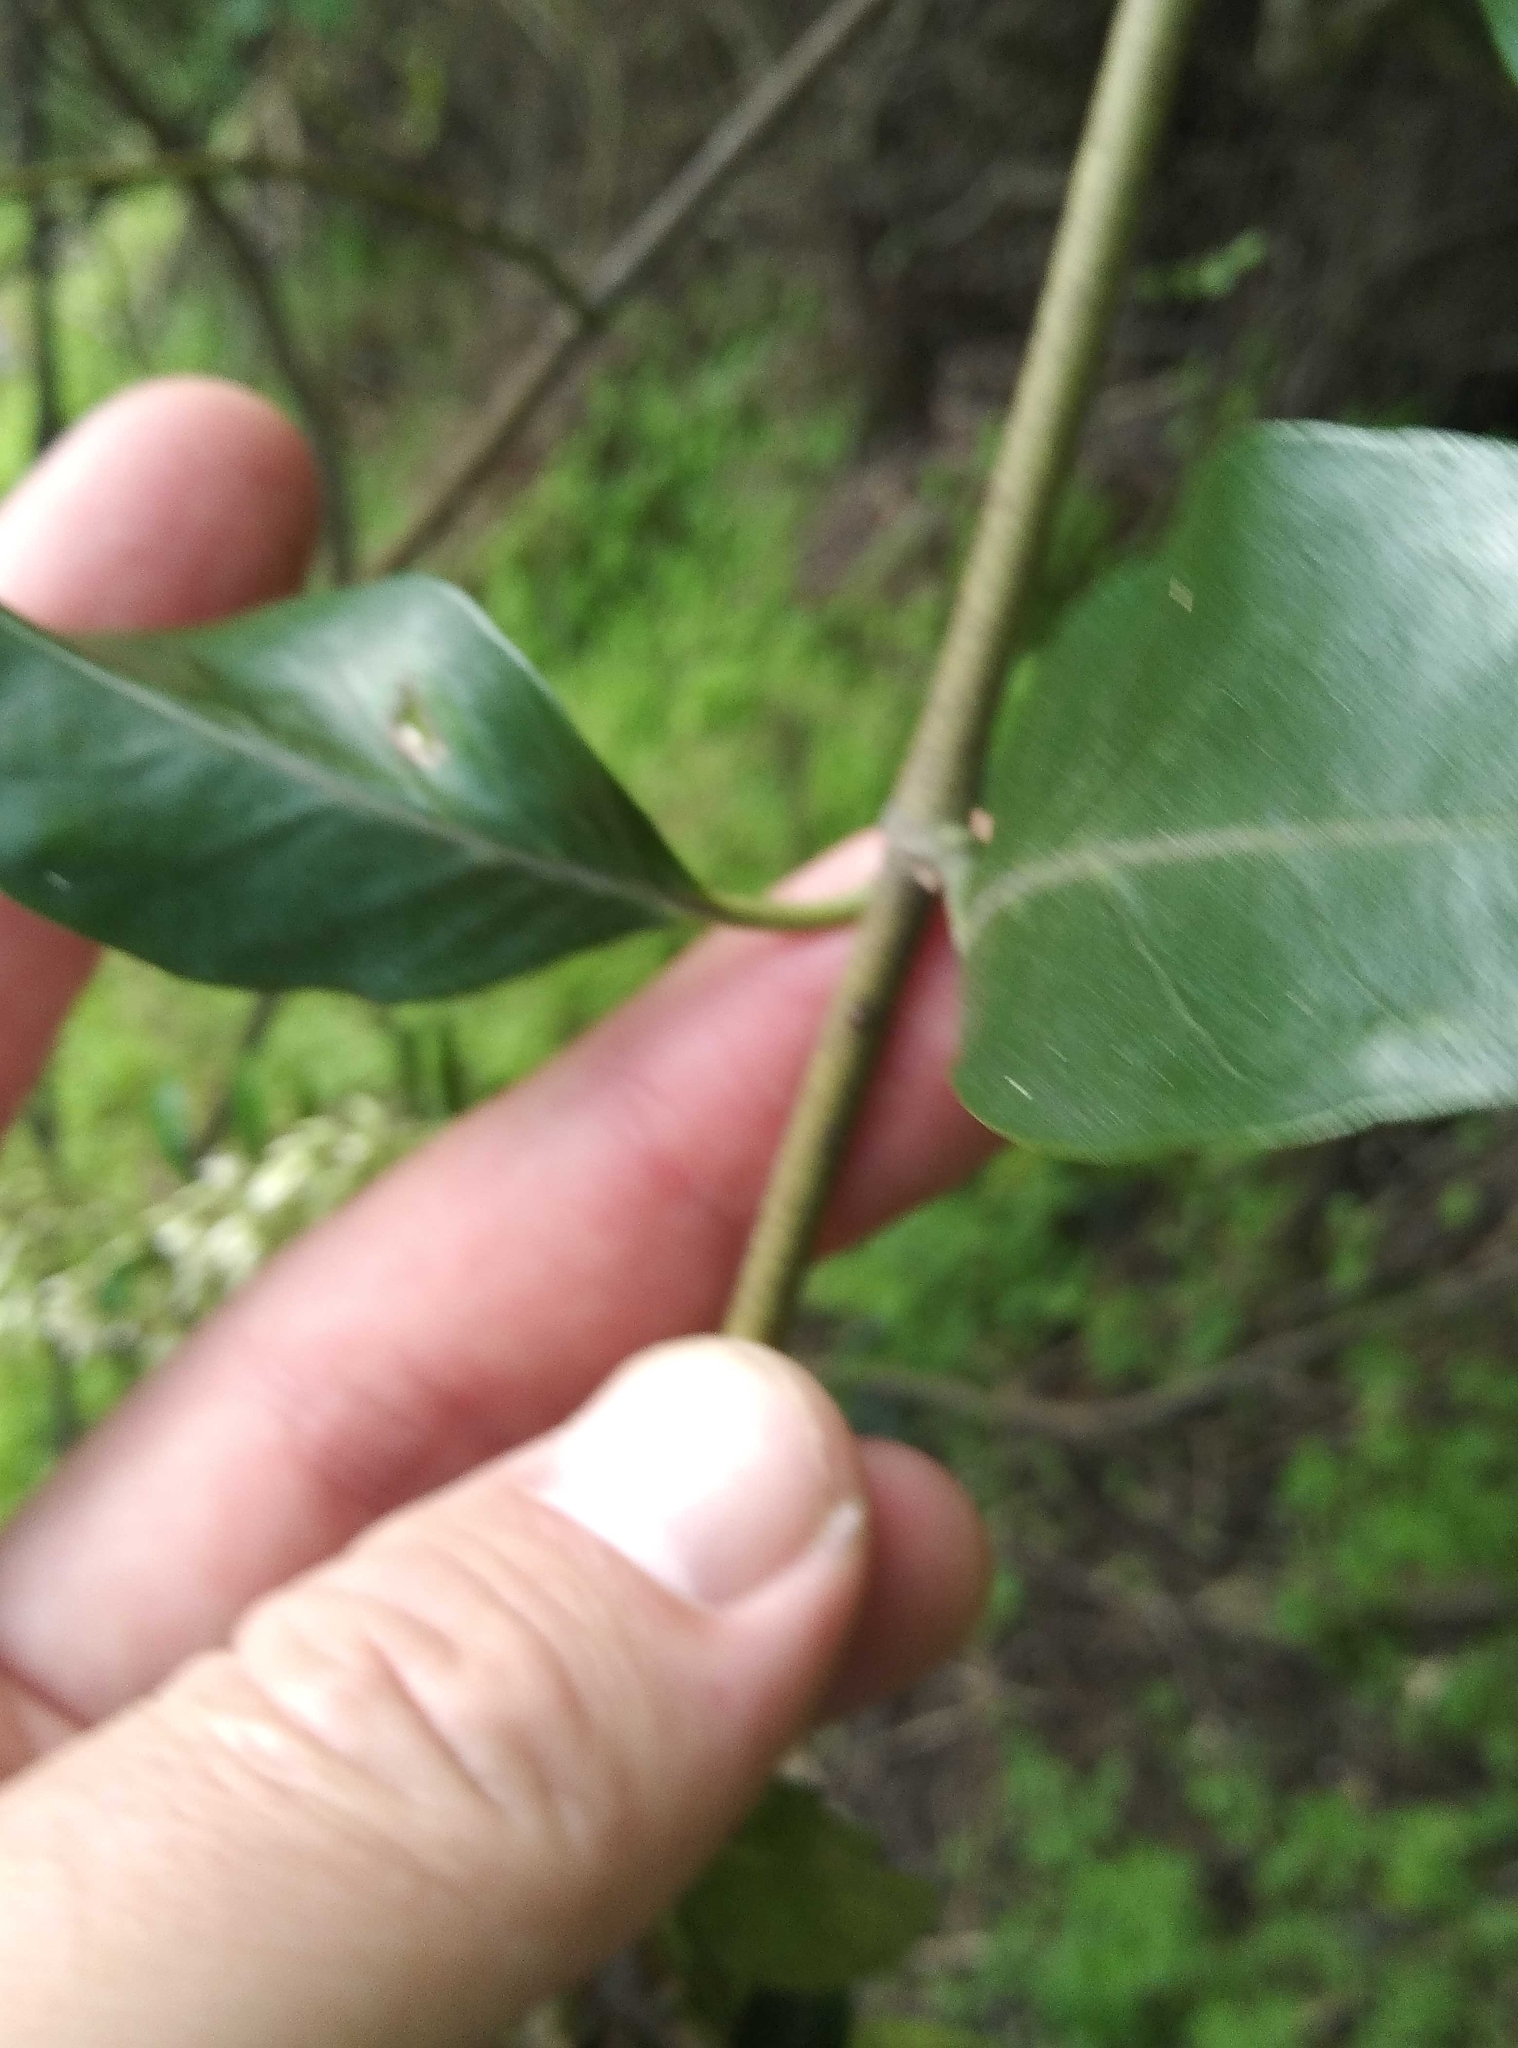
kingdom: Plantae
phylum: Tracheophyta
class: Magnoliopsida
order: Gentianales
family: Apocynaceae
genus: Parsonsia
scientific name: Parsonsia heterophylla
